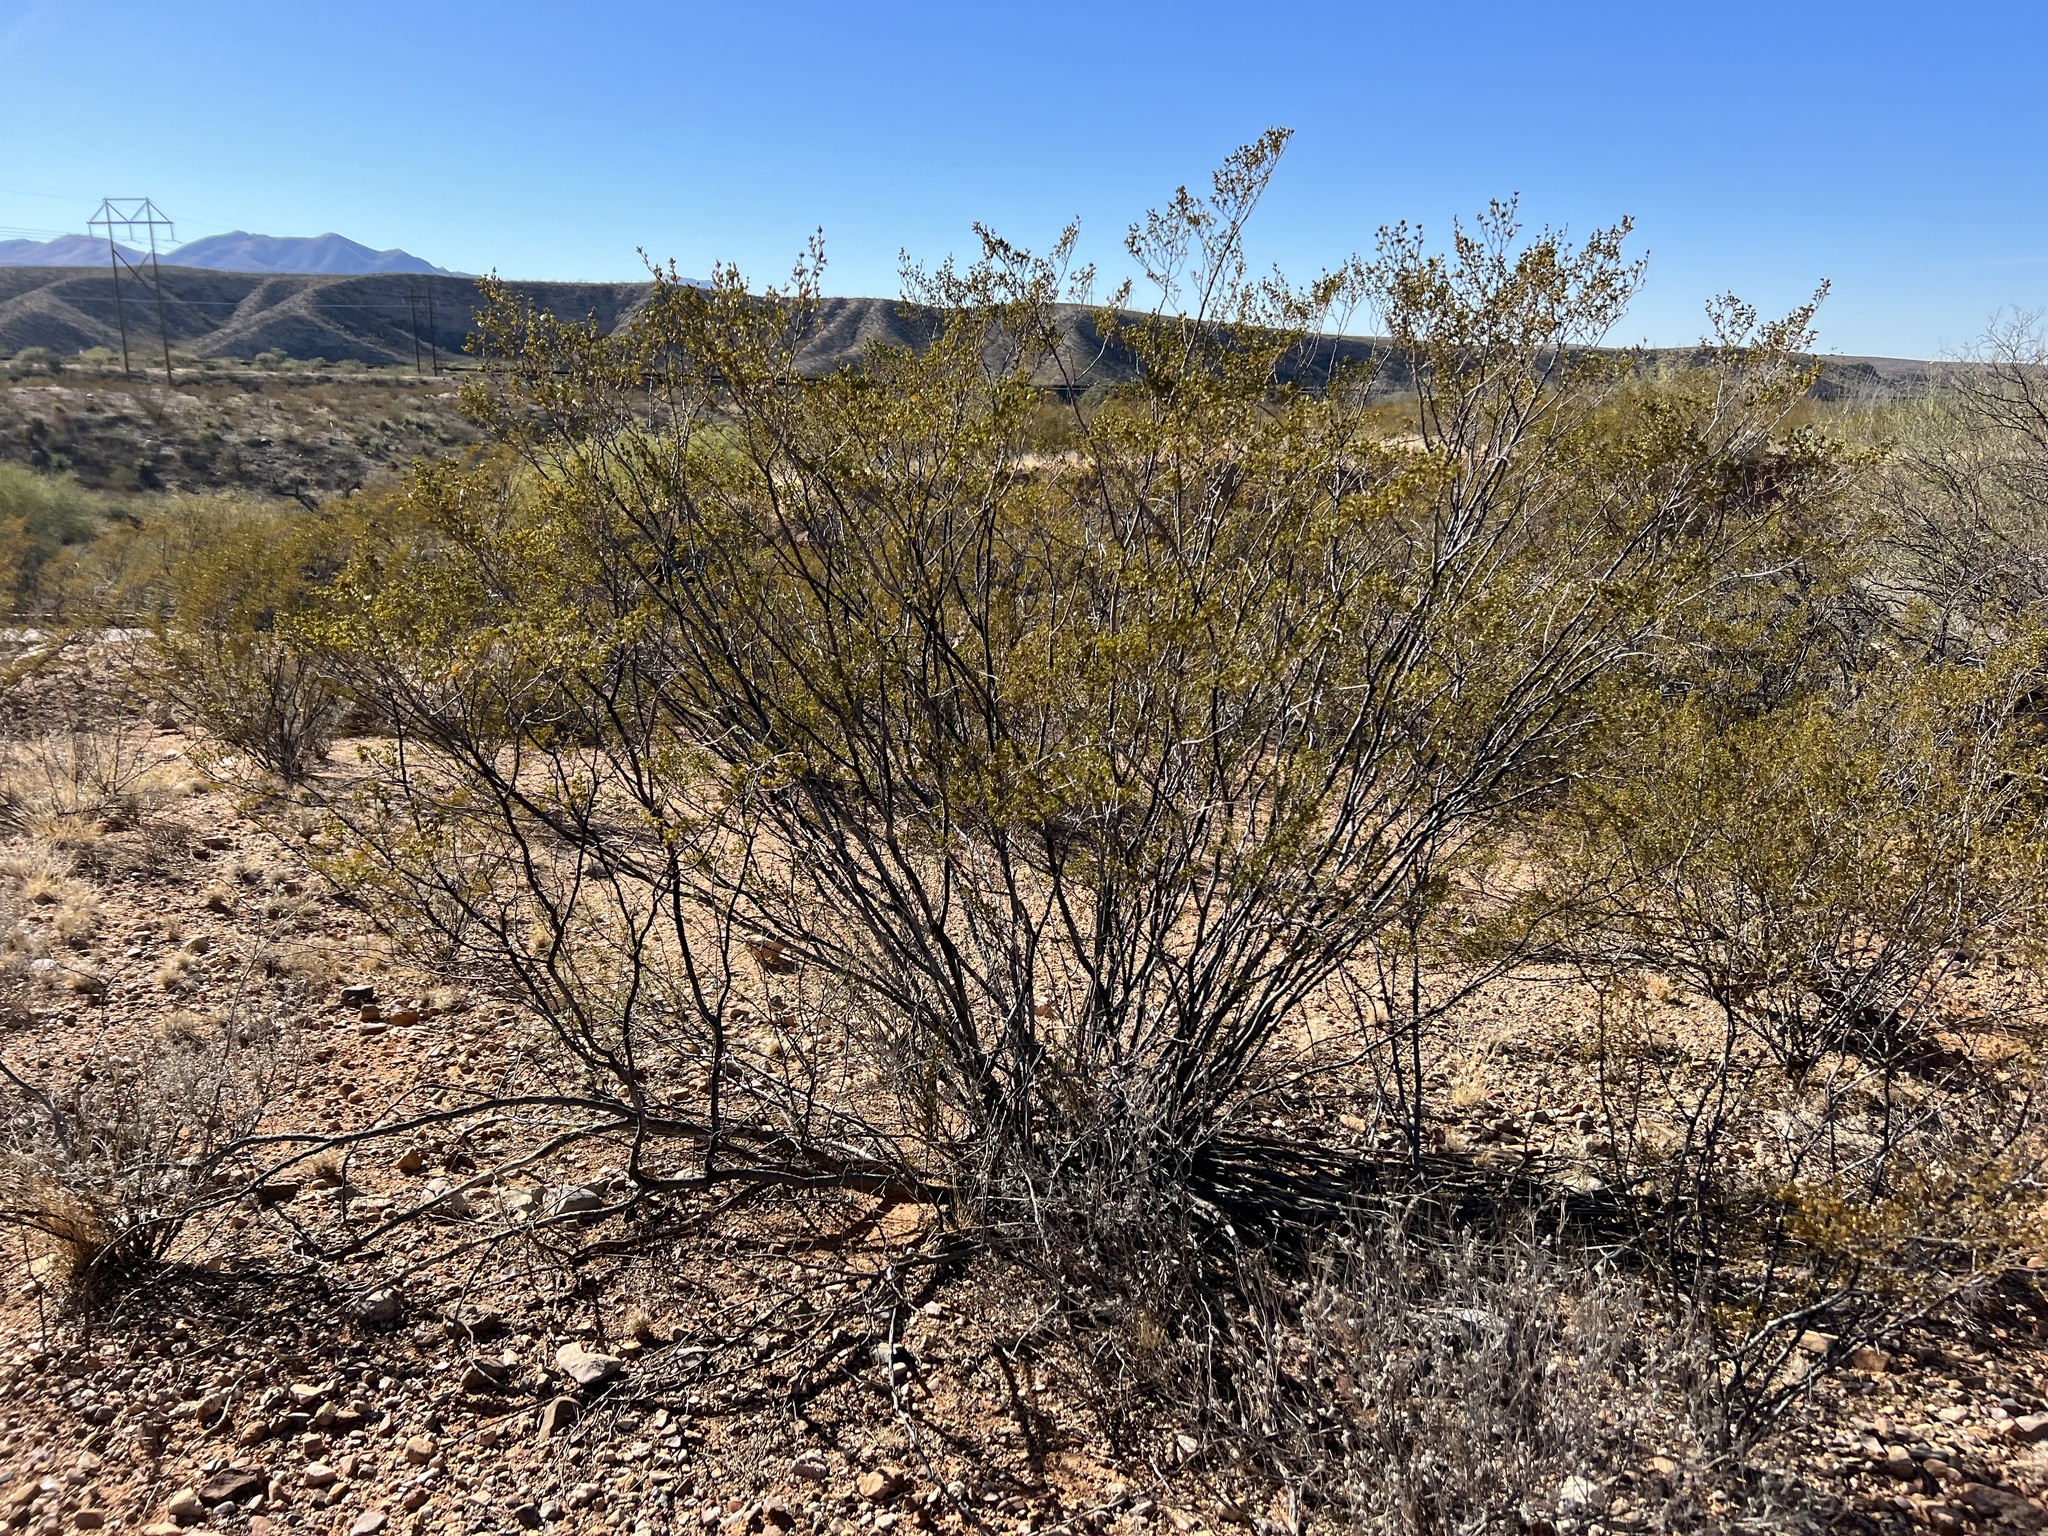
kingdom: Plantae
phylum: Tracheophyta
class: Magnoliopsida
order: Zygophyllales
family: Zygophyllaceae
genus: Larrea
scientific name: Larrea tridentata
